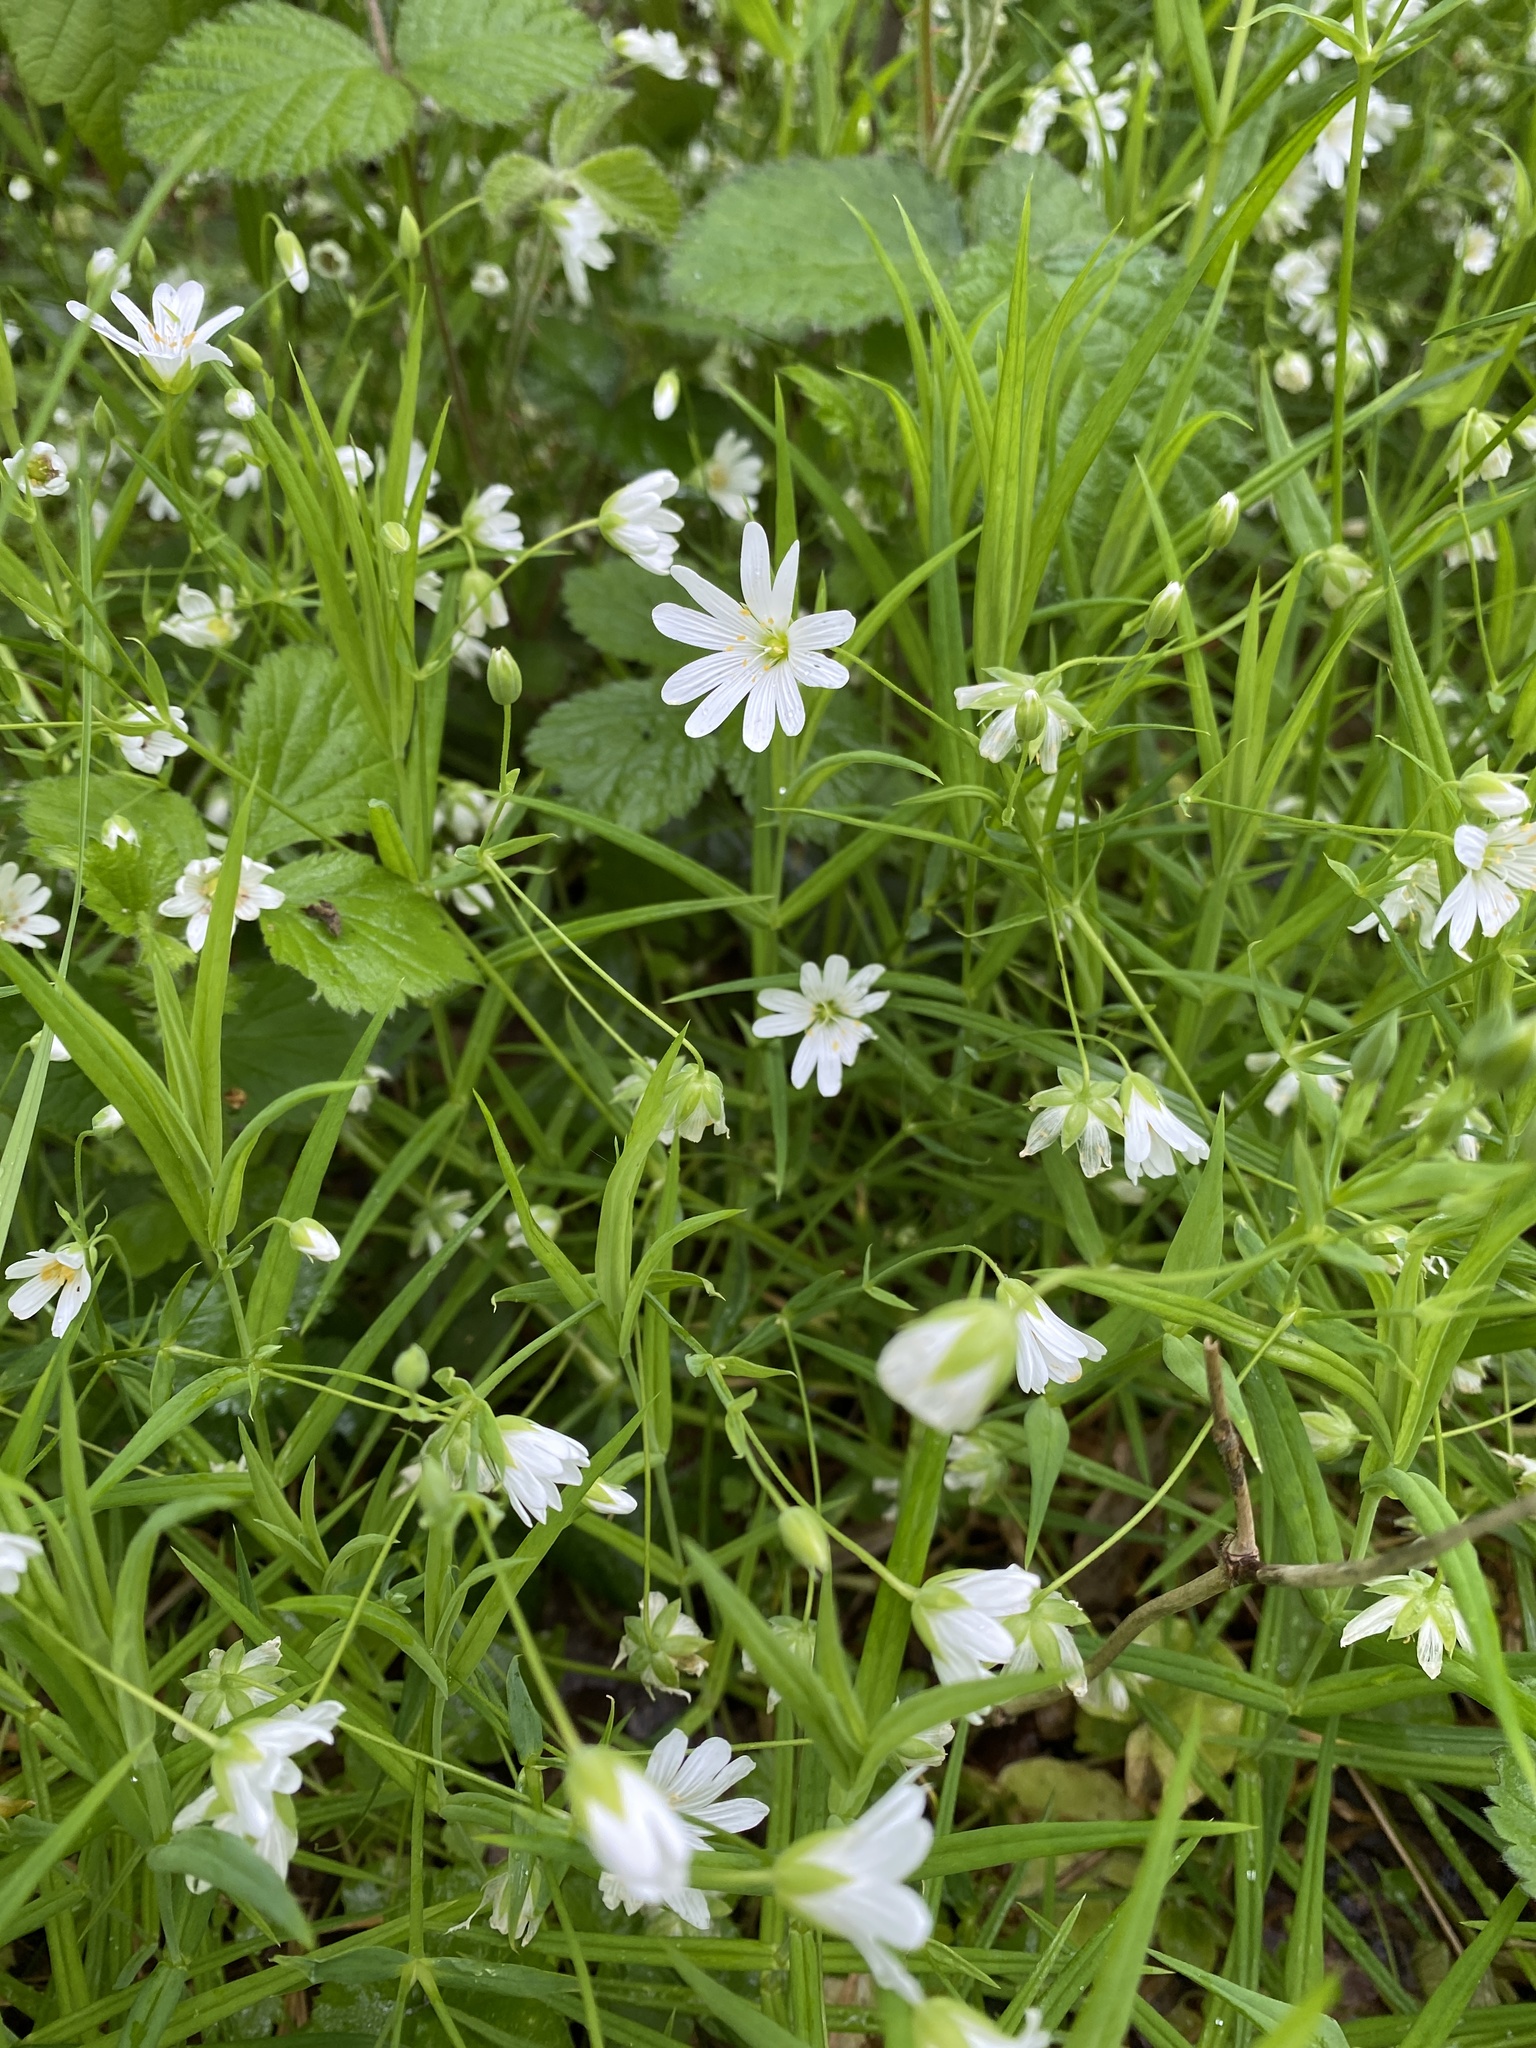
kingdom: Plantae
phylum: Tracheophyta
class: Magnoliopsida
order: Caryophyllales
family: Caryophyllaceae
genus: Rabelera
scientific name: Rabelera holostea
